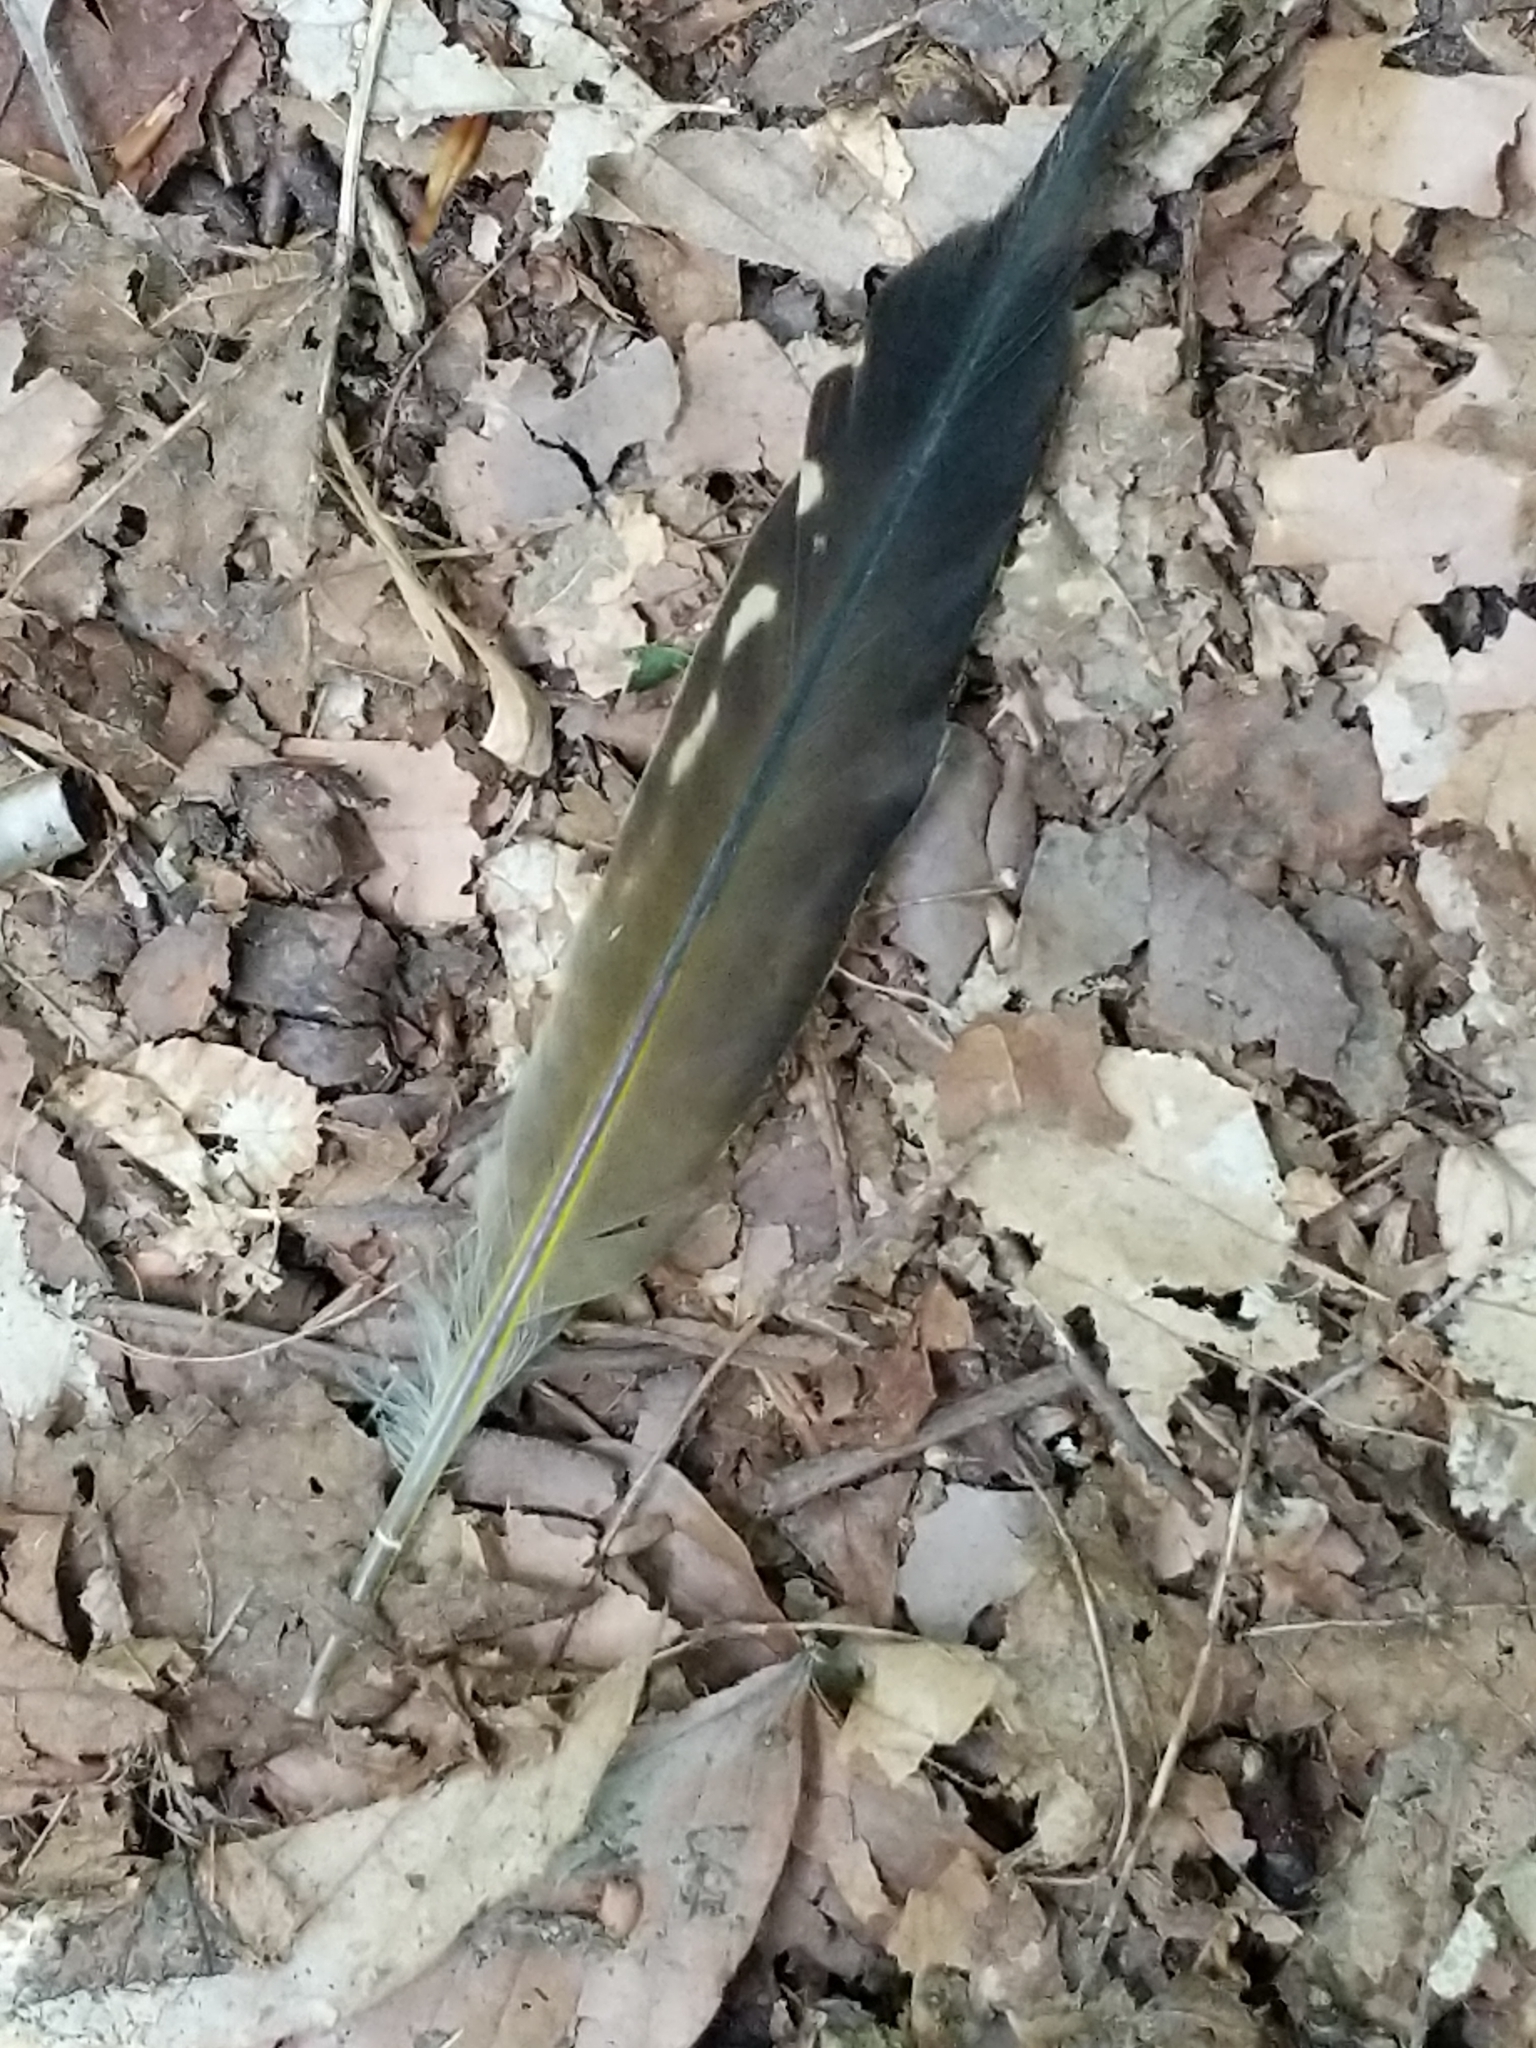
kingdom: Animalia
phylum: Chordata
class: Aves
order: Piciformes
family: Picidae
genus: Colaptes
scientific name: Colaptes auratus
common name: Northern flicker
